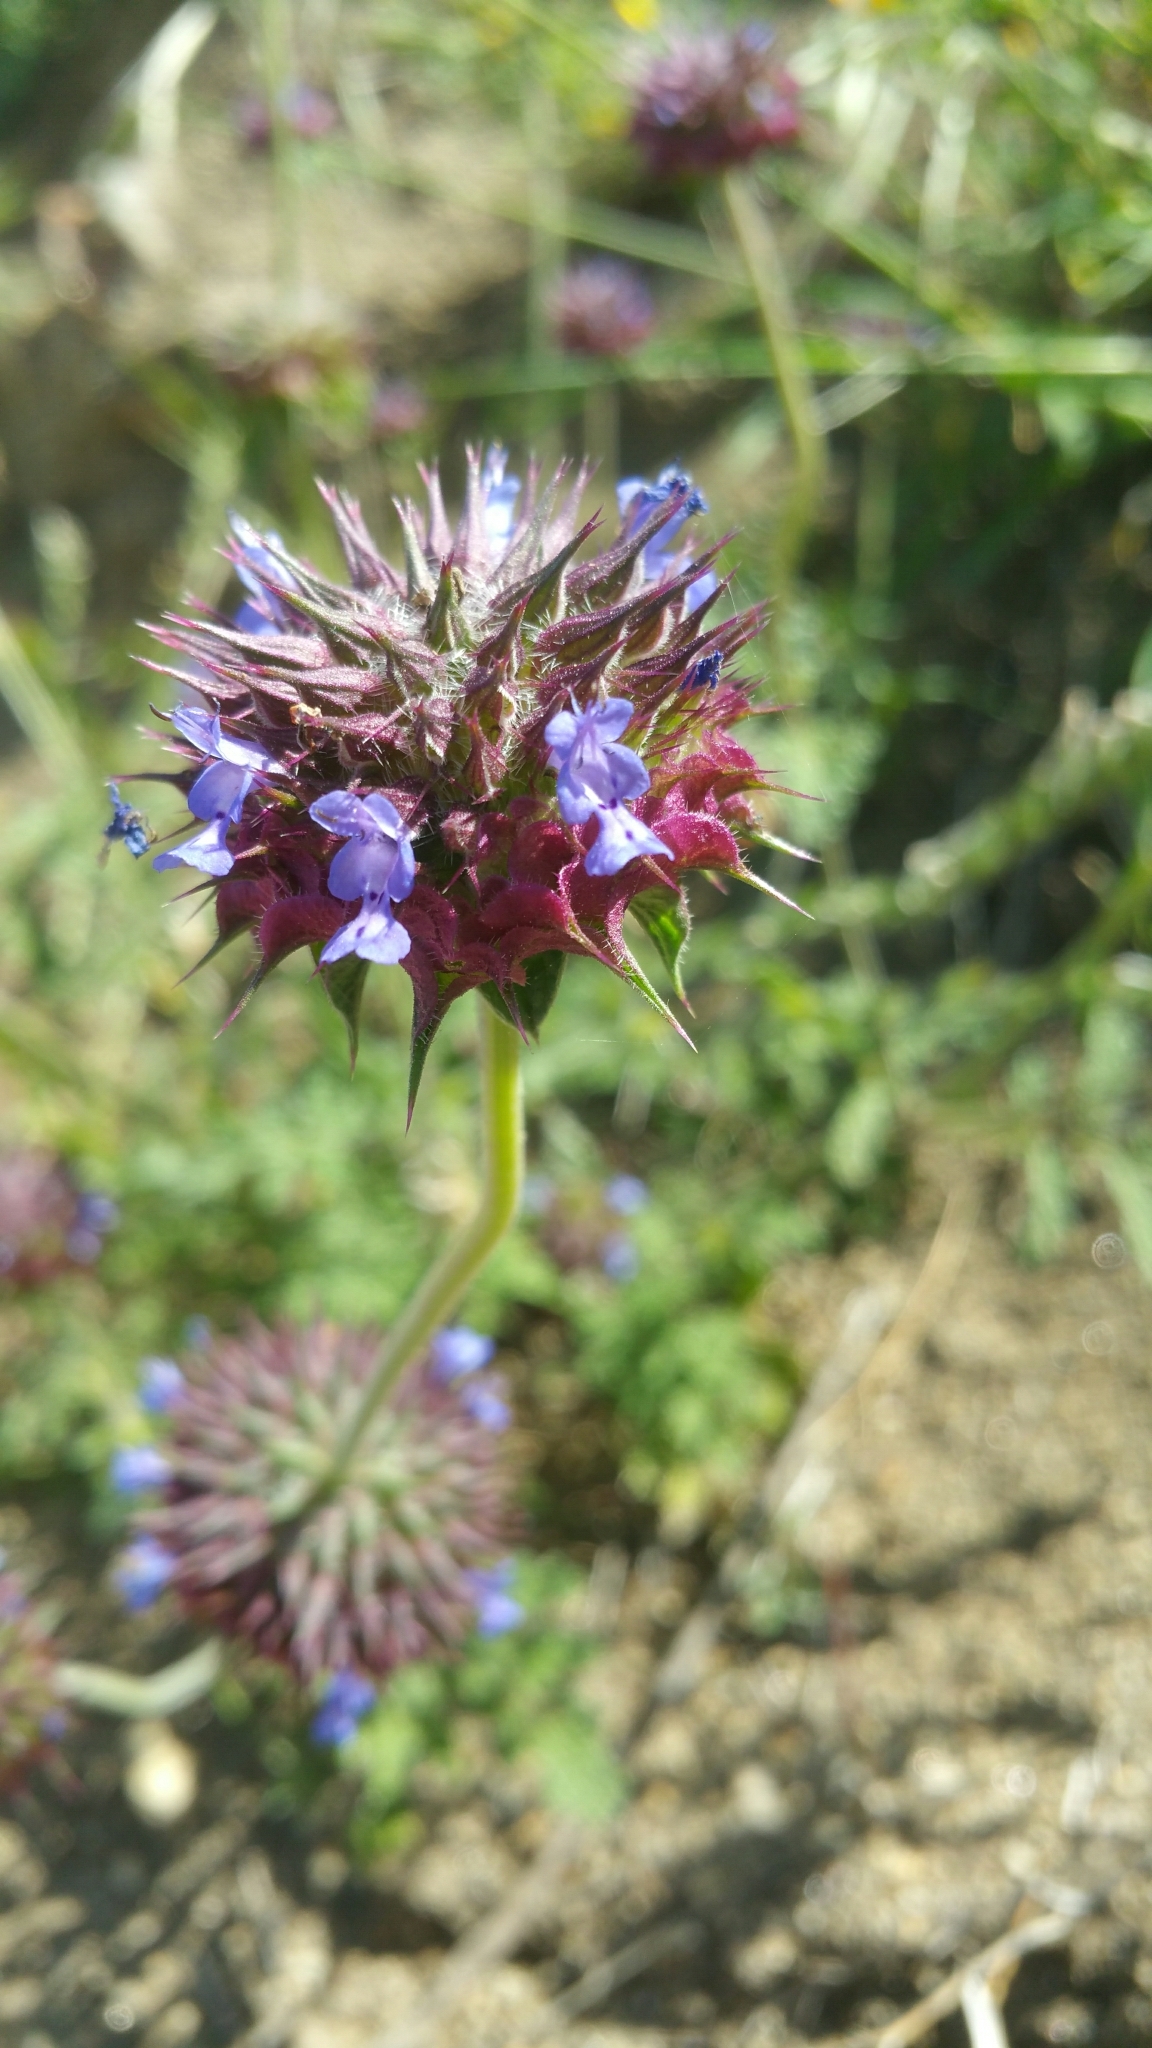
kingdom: Plantae
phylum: Tracheophyta
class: Magnoliopsida
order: Lamiales
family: Lamiaceae
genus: Salvia
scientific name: Salvia columbariae
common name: Chia
